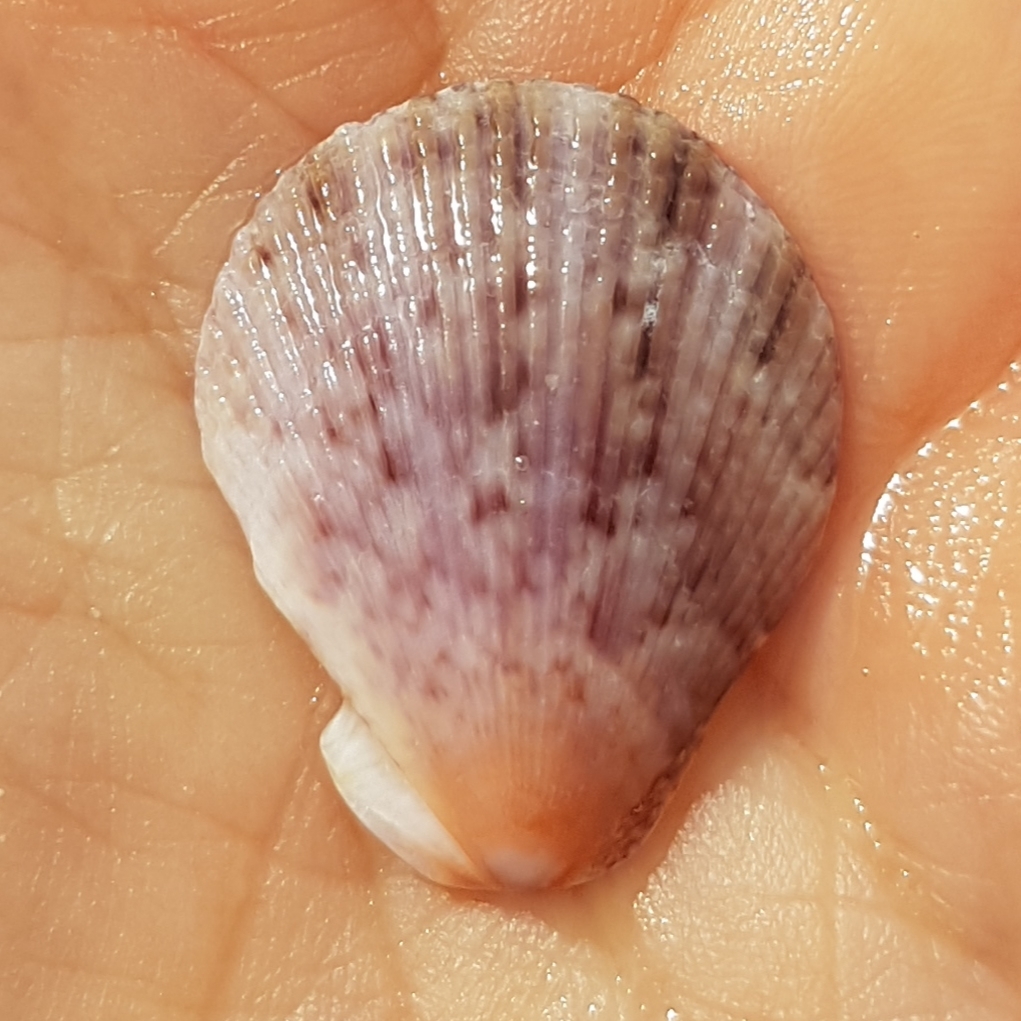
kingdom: Animalia
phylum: Mollusca
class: Bivalvia
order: Pectinida
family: Pectinidae
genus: Mimachlamys
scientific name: Mimachlamys varia
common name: Variegated scallop
